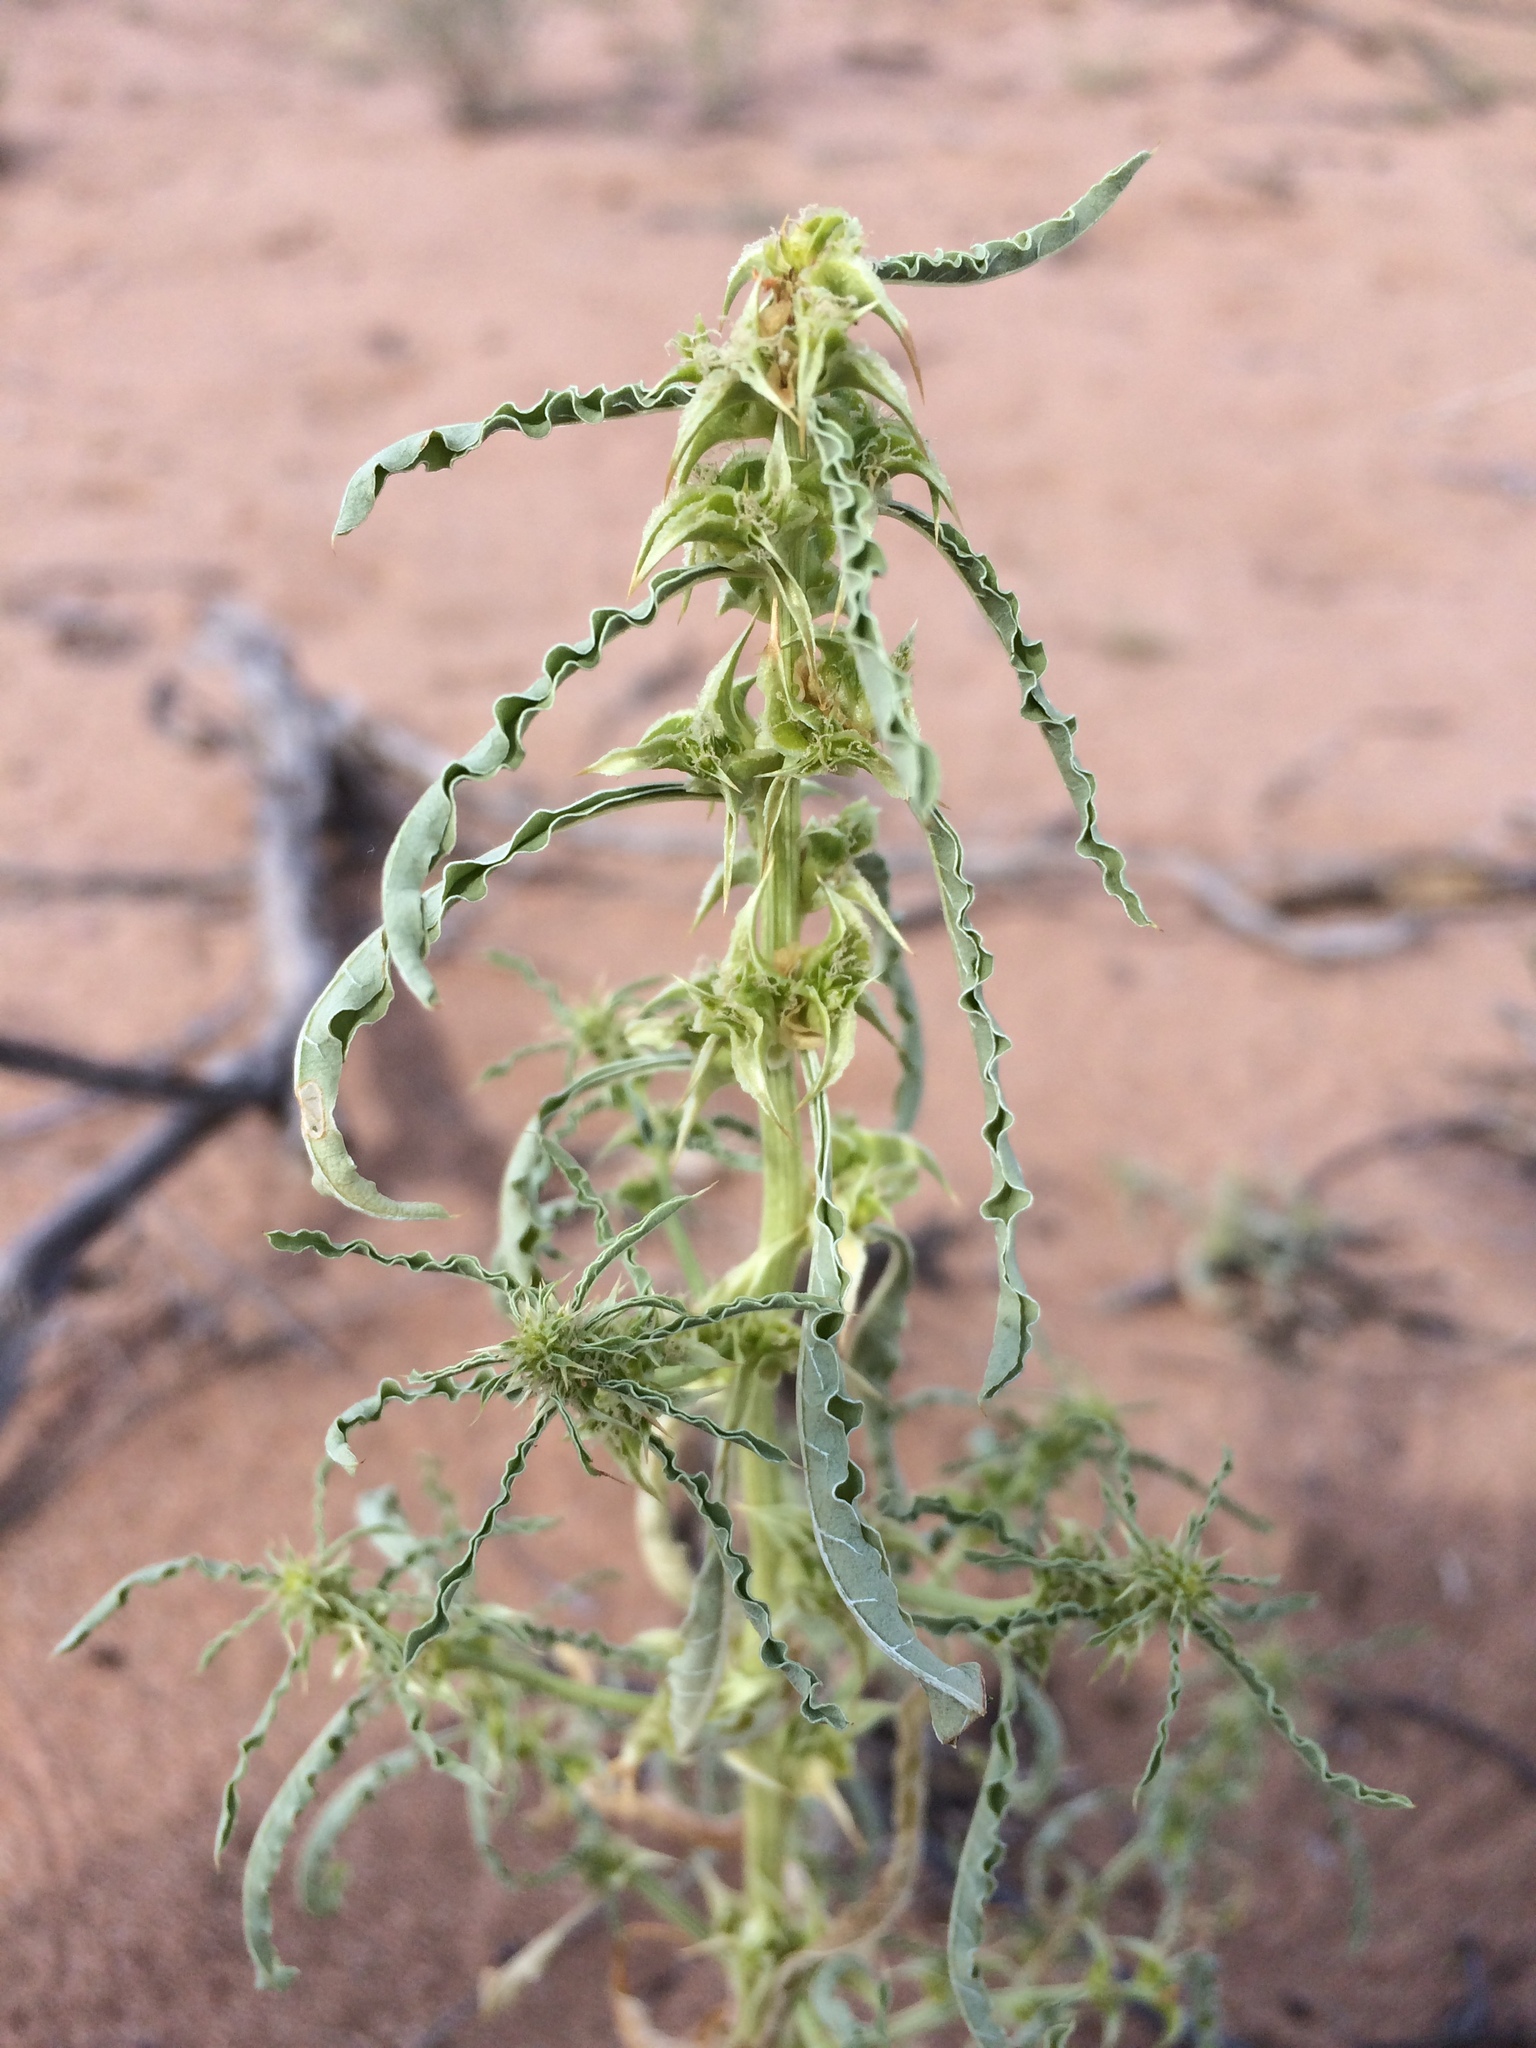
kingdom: Plantae
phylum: Tracheophyta
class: Magnoliopsida
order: Caryophyllales
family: Amaranthaceae
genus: Amaranthus
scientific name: Amaranthus acanthochiton
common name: Greenstripe
